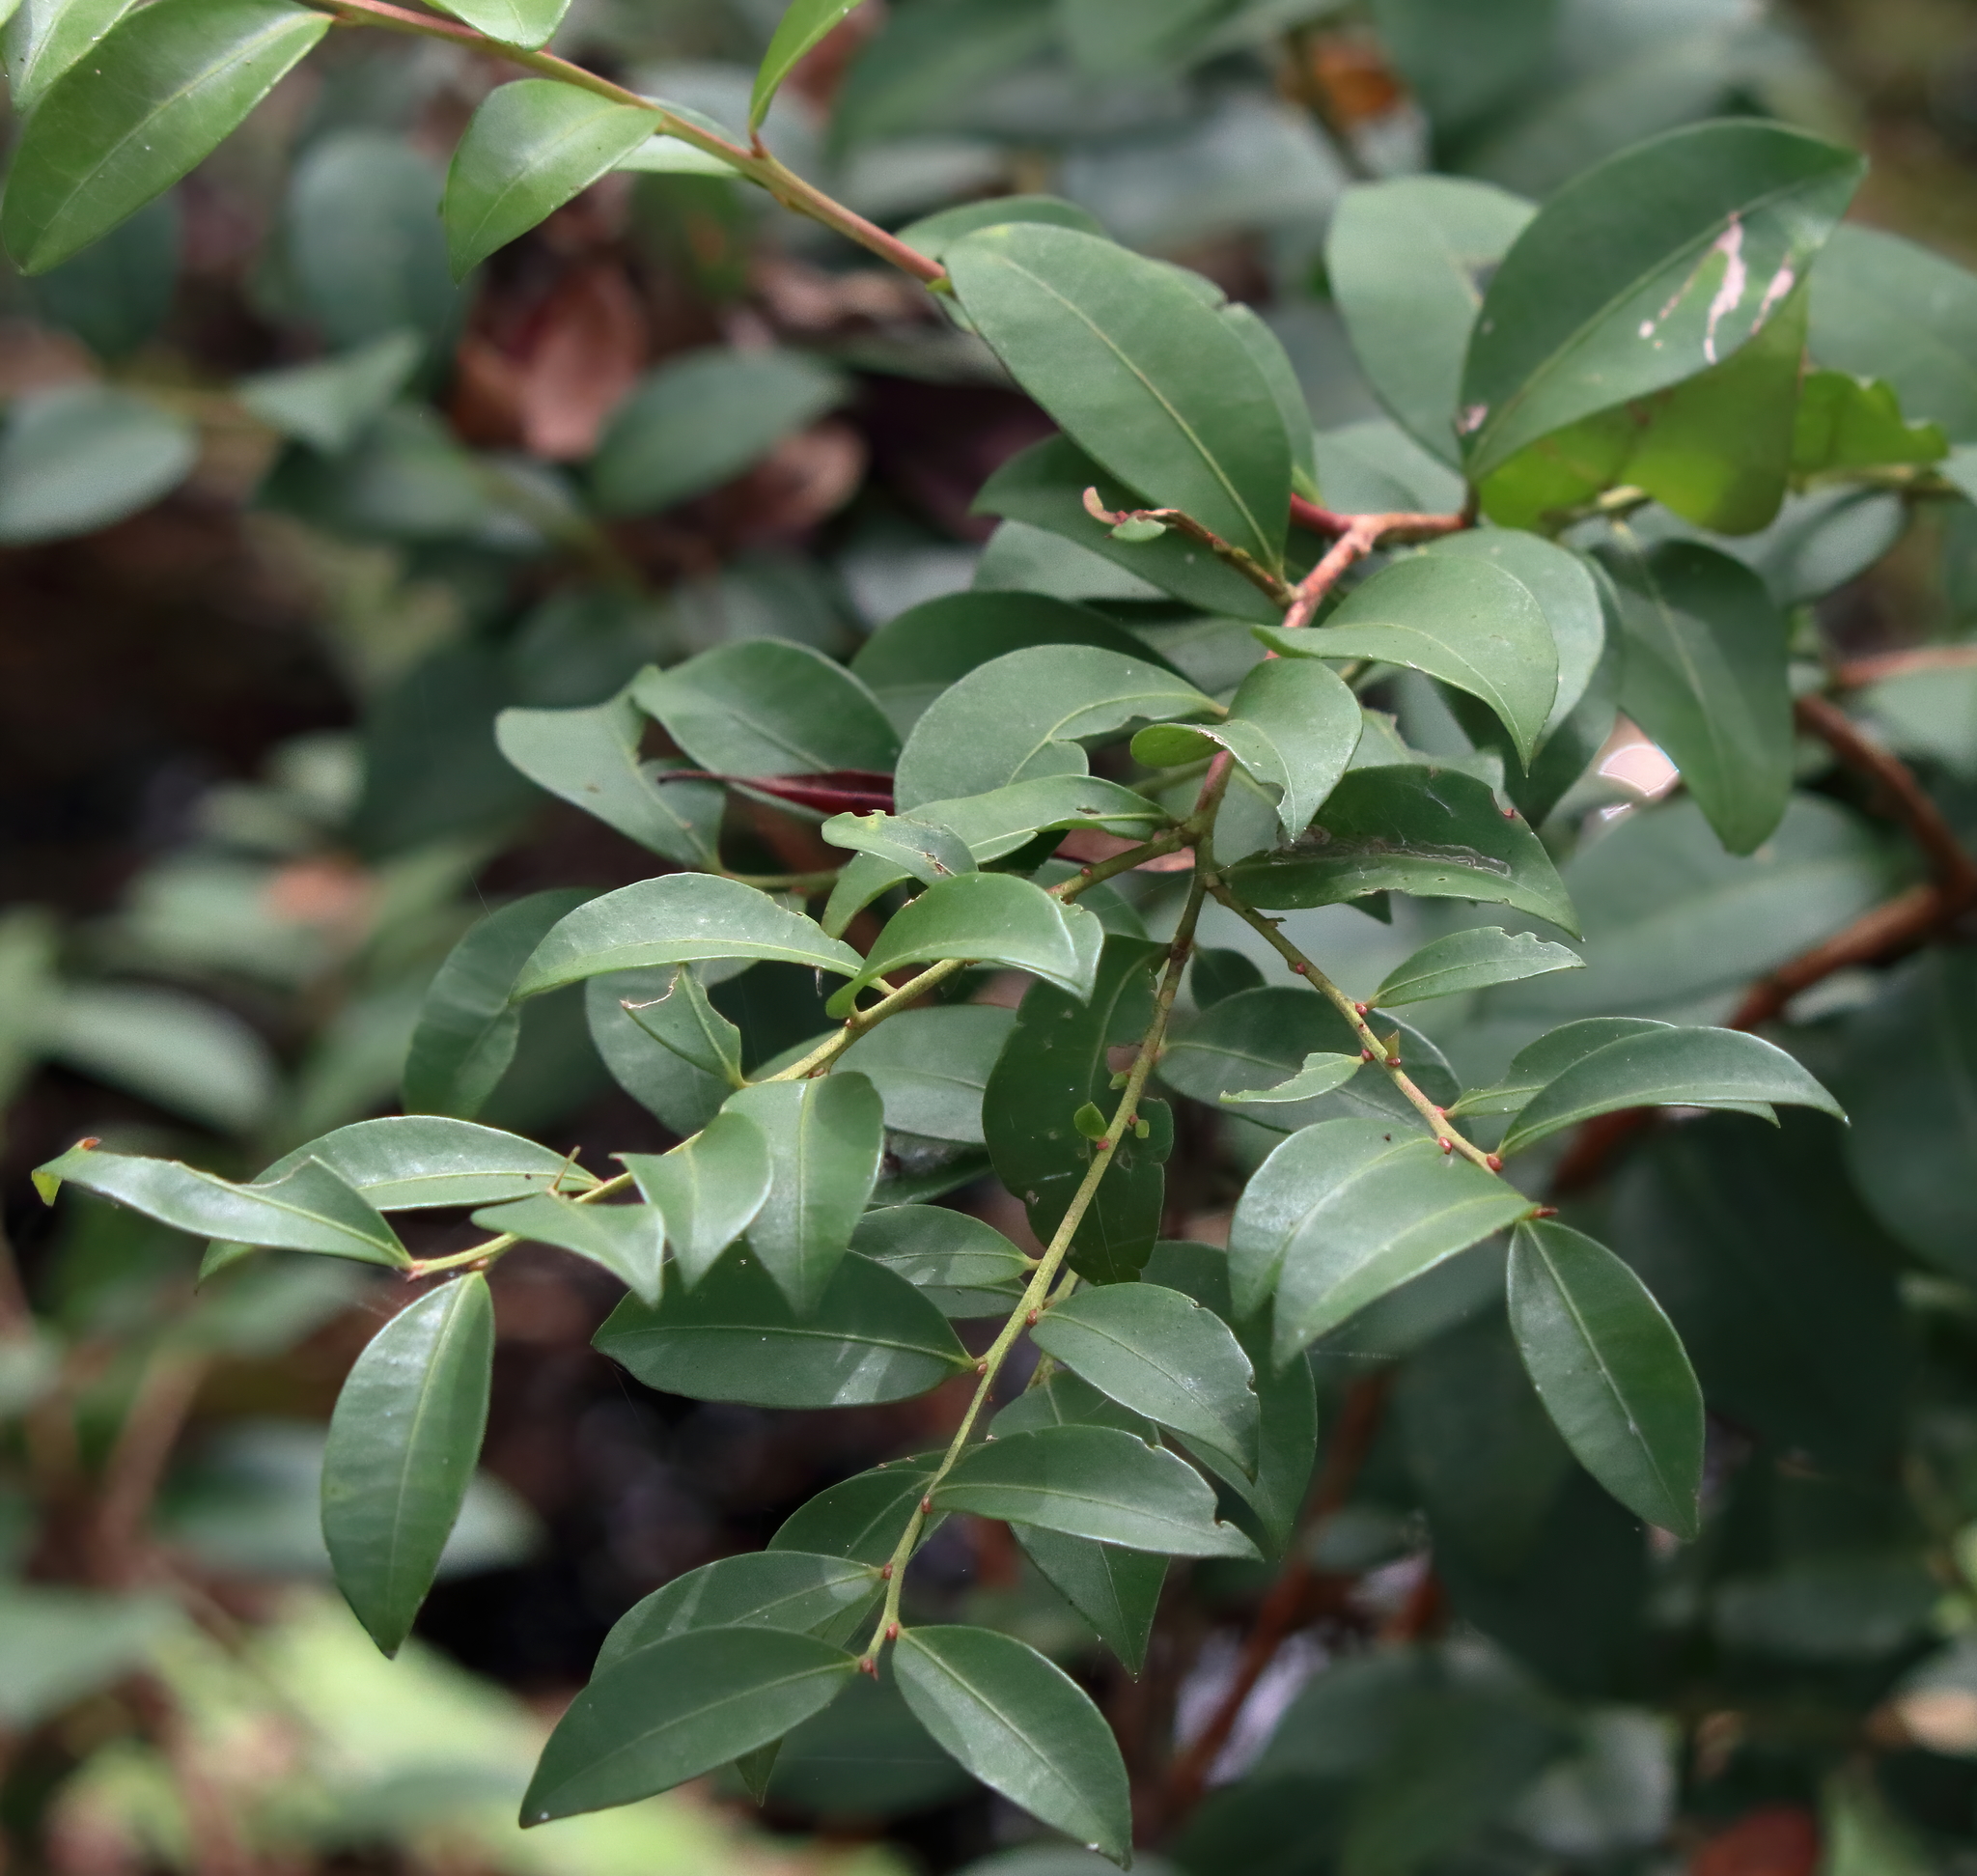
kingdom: Plantae
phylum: Tracheophyta
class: Magnoliopsida
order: Ericales
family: Ericaceae
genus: Lyonia
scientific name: Lyonia lucida
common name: Fetterbush
